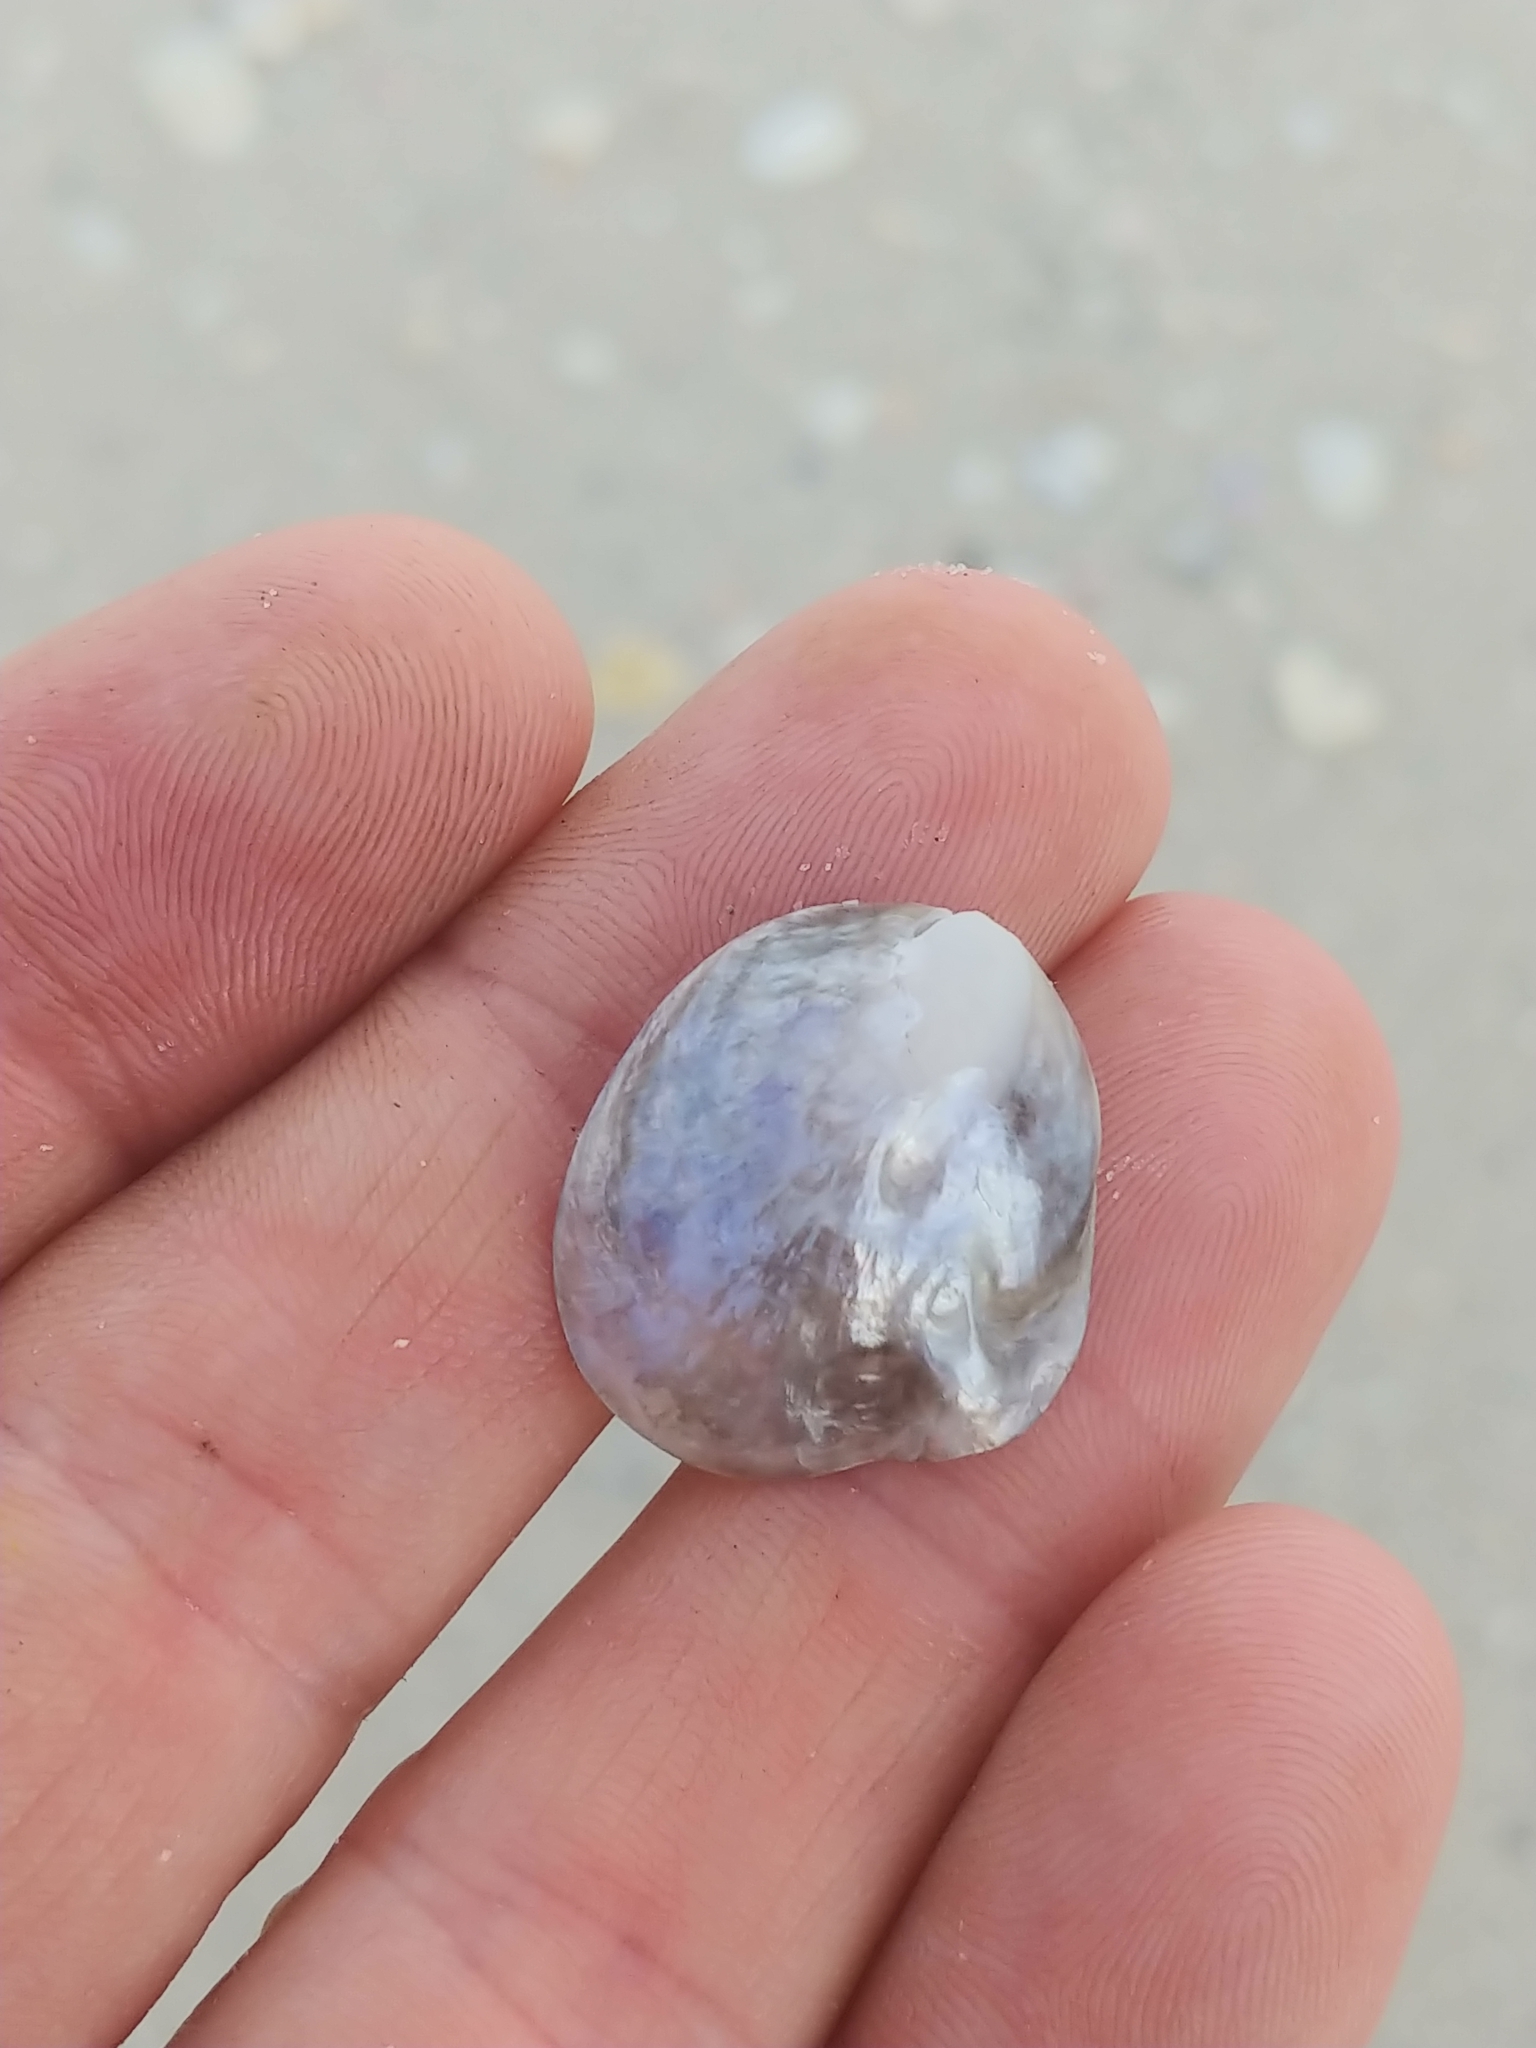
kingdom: Animalia
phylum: Mollusca
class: Bivalvia
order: Pectinida
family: Anomiidae
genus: Anomia
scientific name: Anomia simplex
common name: Common jingle shell
